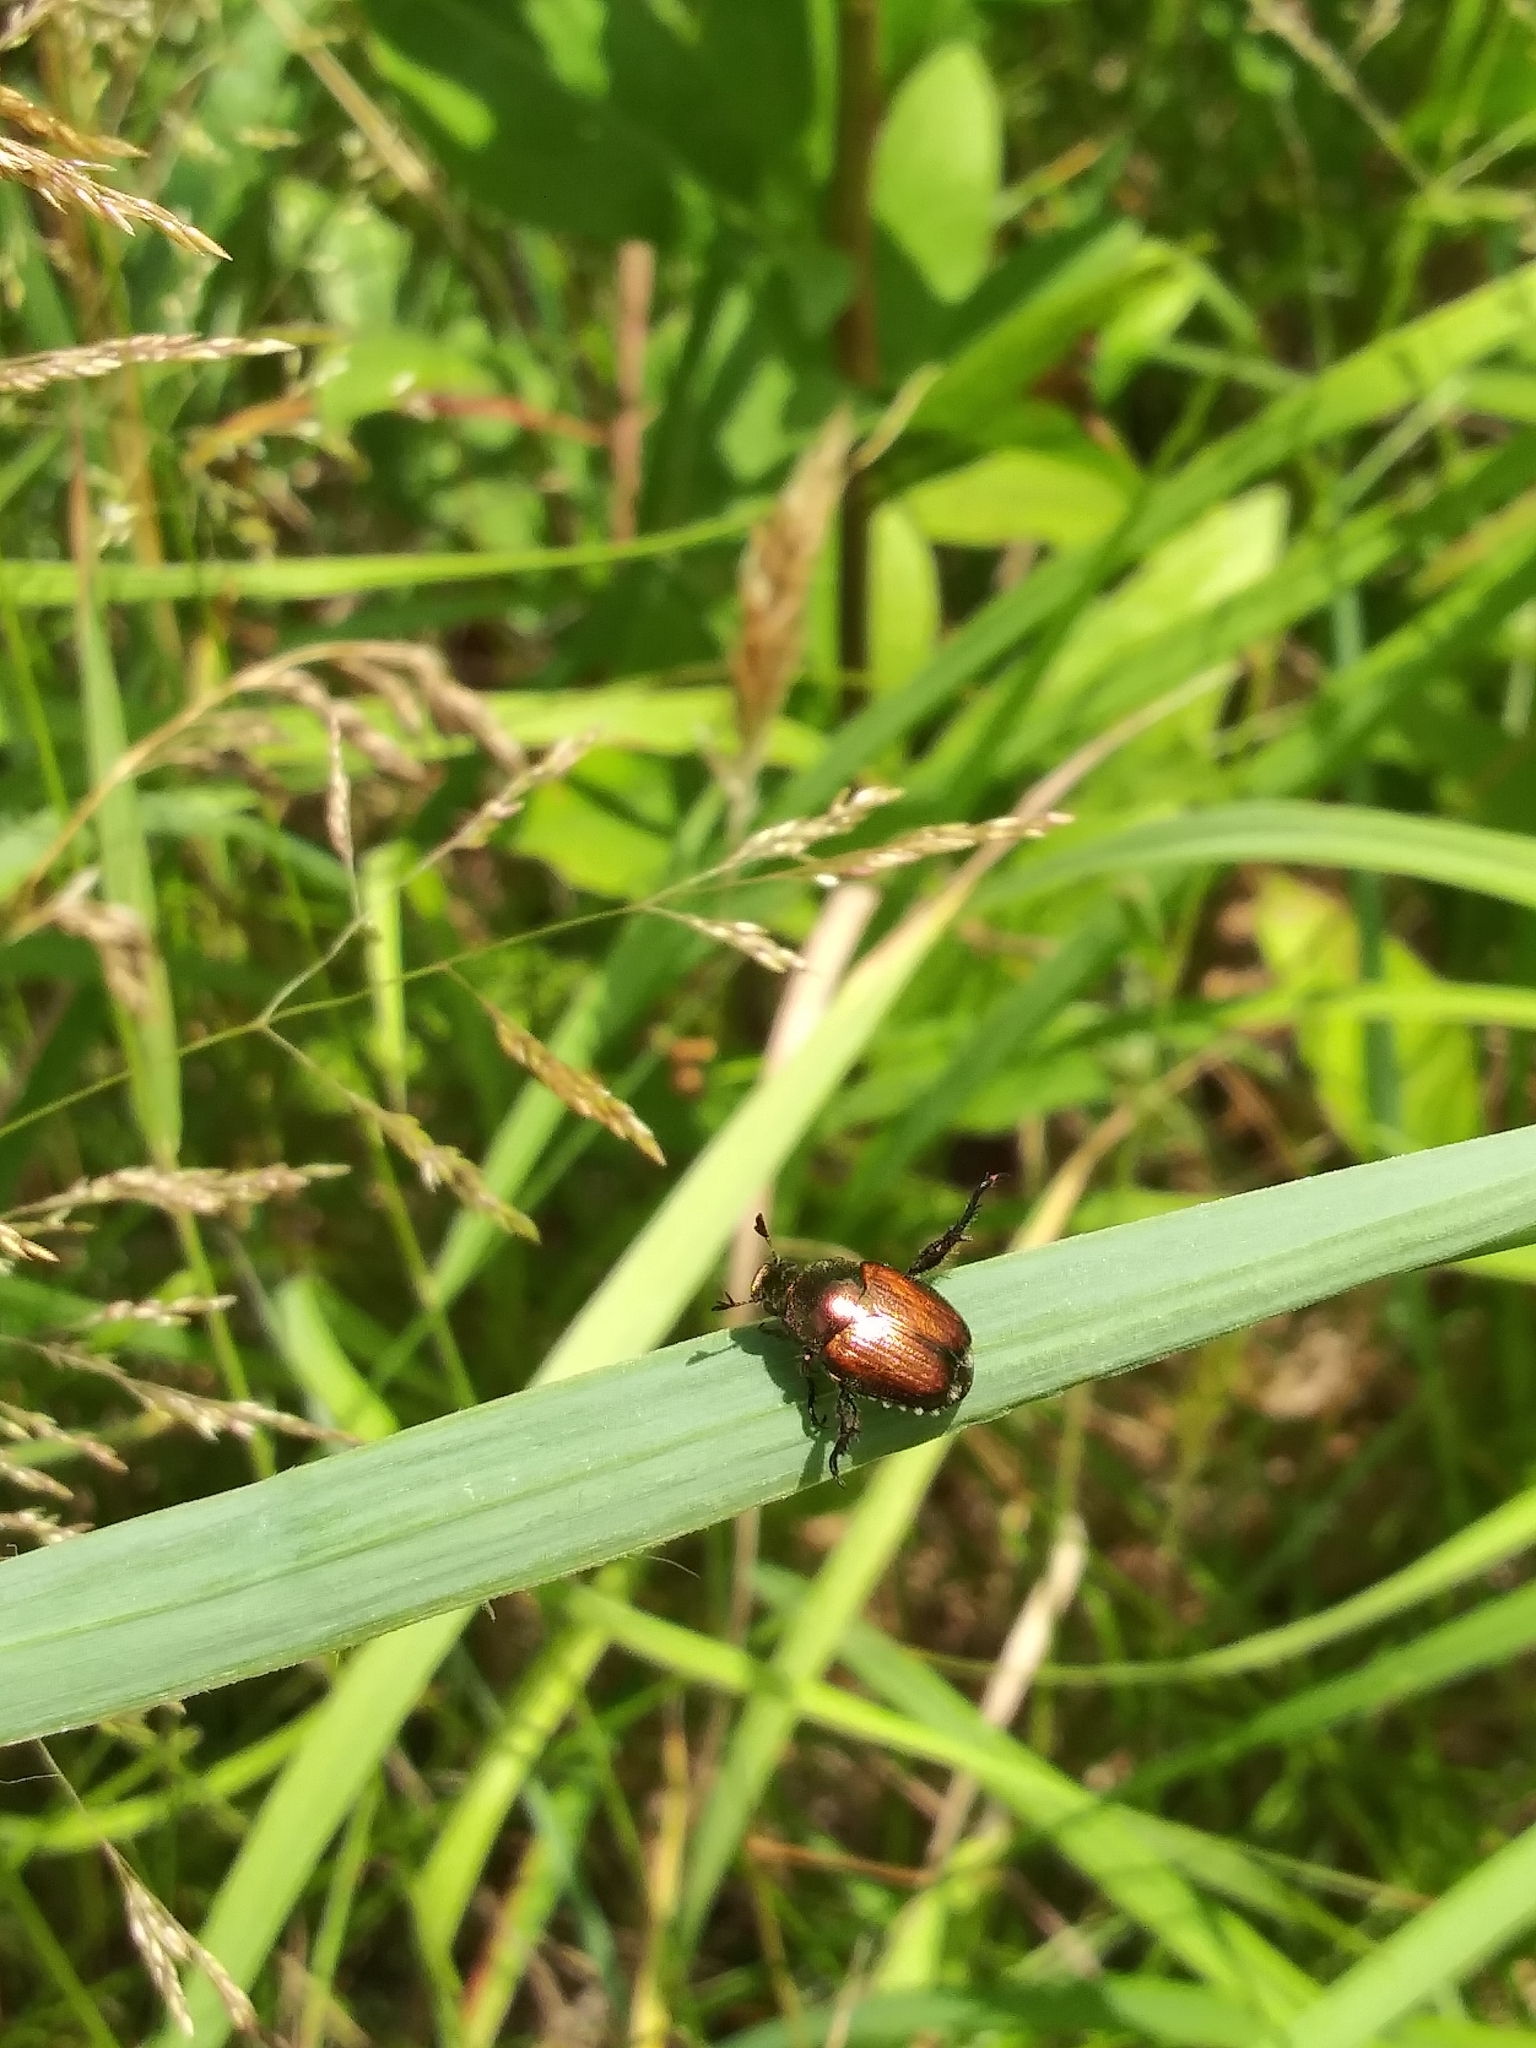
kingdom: Animalia
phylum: Arthropoda
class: Insecta
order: Coleoptera
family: Scarabaeidae
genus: Popillia
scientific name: Popillia japonica
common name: Japanese beetle
